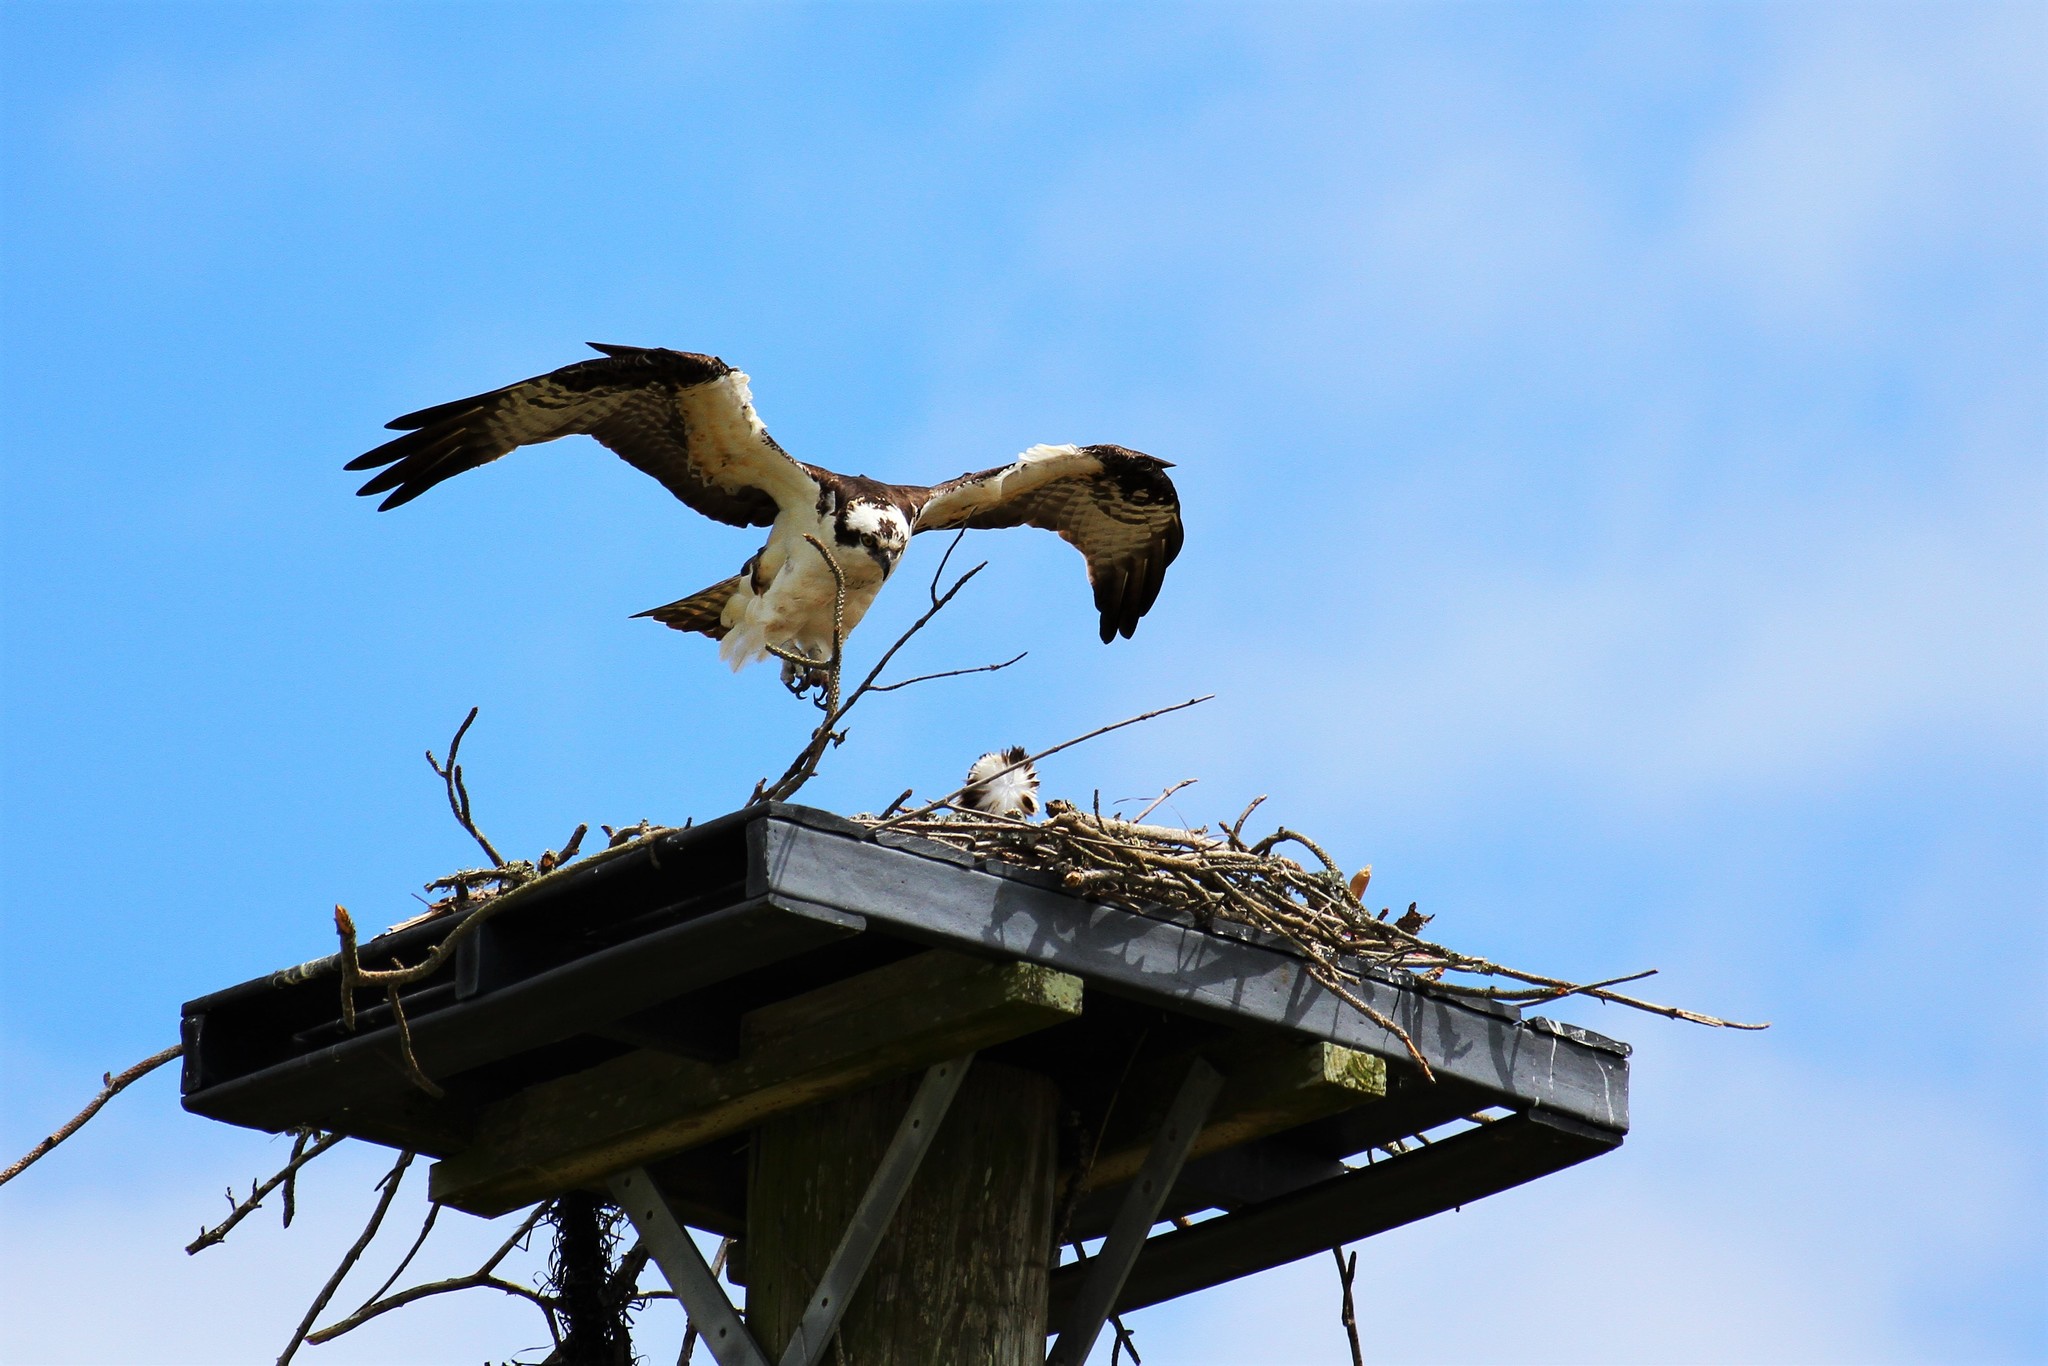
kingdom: Animalia
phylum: Chordata
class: Aves
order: Accipitriformes
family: Pandionidae
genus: Pandion
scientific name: Pandion haliaetus
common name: Osprey
